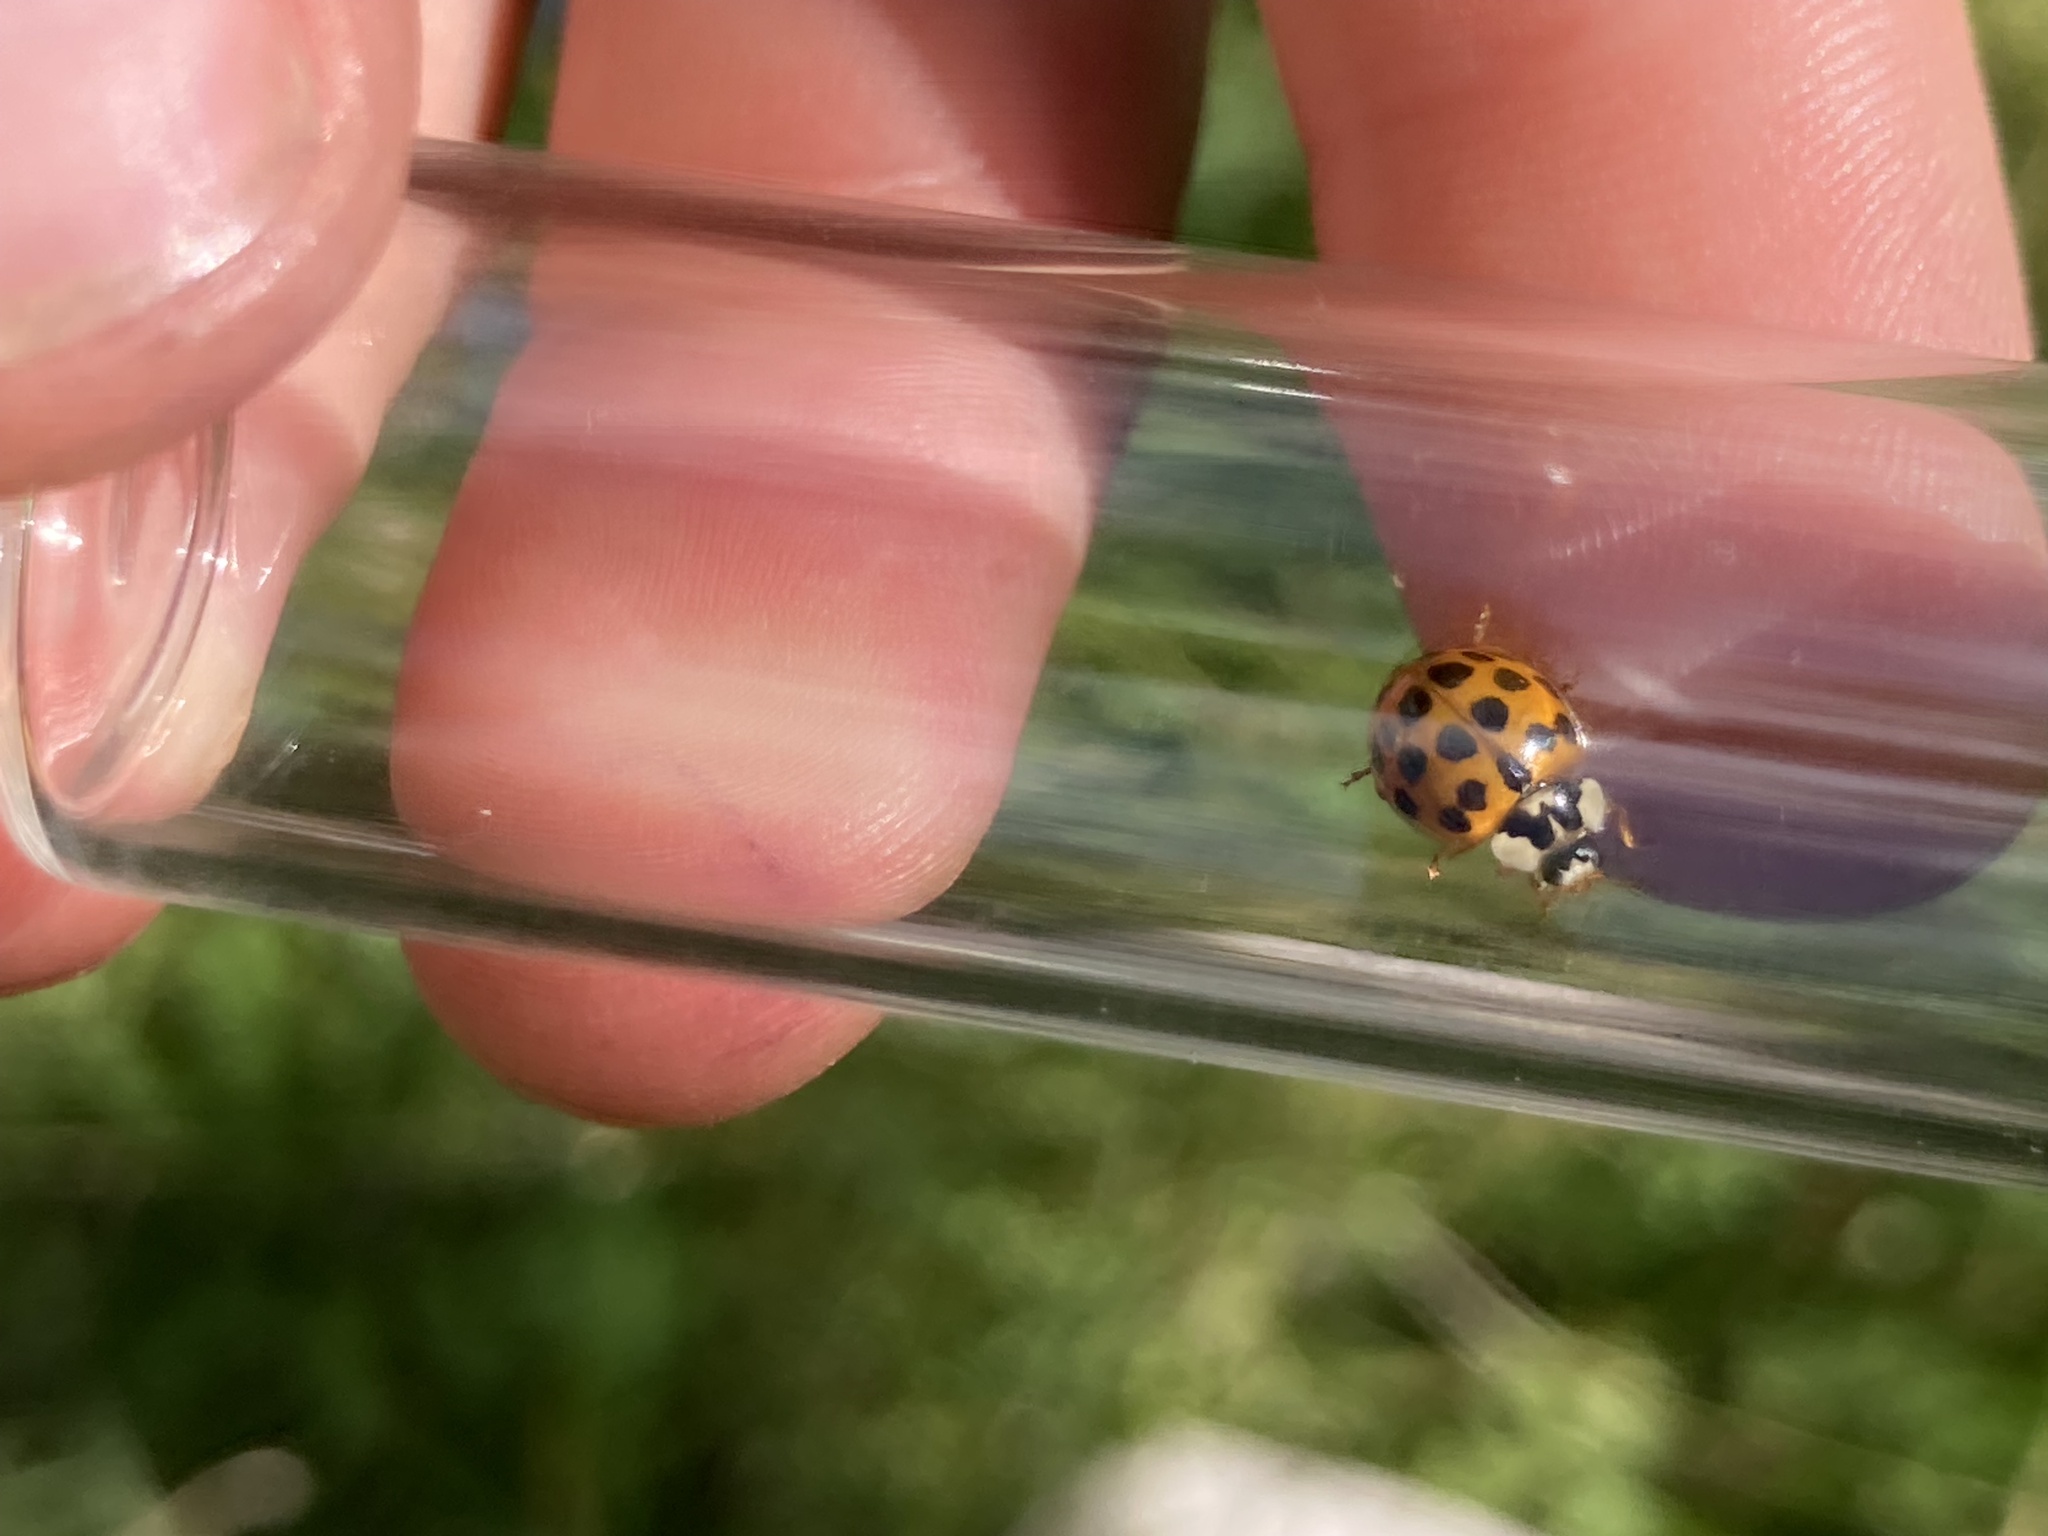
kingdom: Animalia
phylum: Arthropoda
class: Insecta
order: Coleoptera
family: Coccinellidae
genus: Harmonia
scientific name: Harmonia axyridis
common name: Harlequin ladybird
